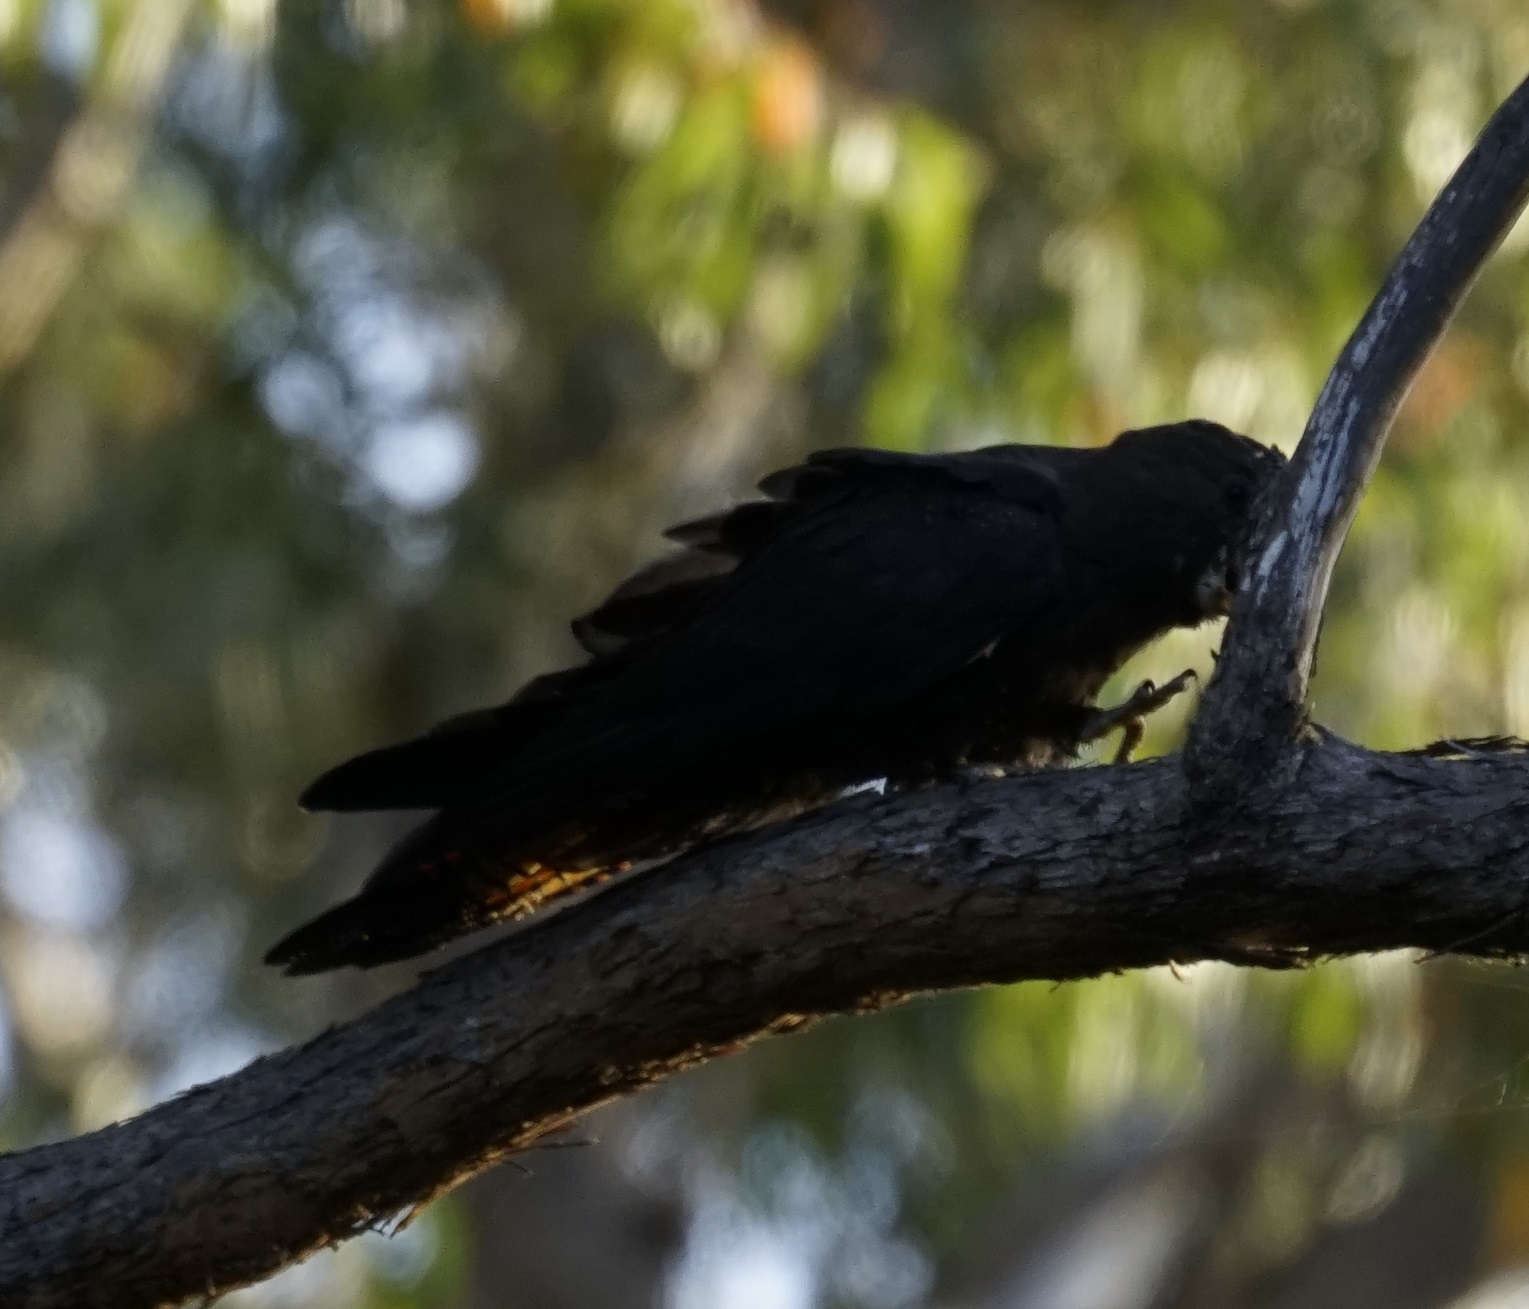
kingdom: Animalia
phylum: Chordata
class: Aves
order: Psittaciformes
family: Psittacidae
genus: Calyptorhynchus
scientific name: Calyptorhynchus lathami
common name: Glossy black cockatoo
